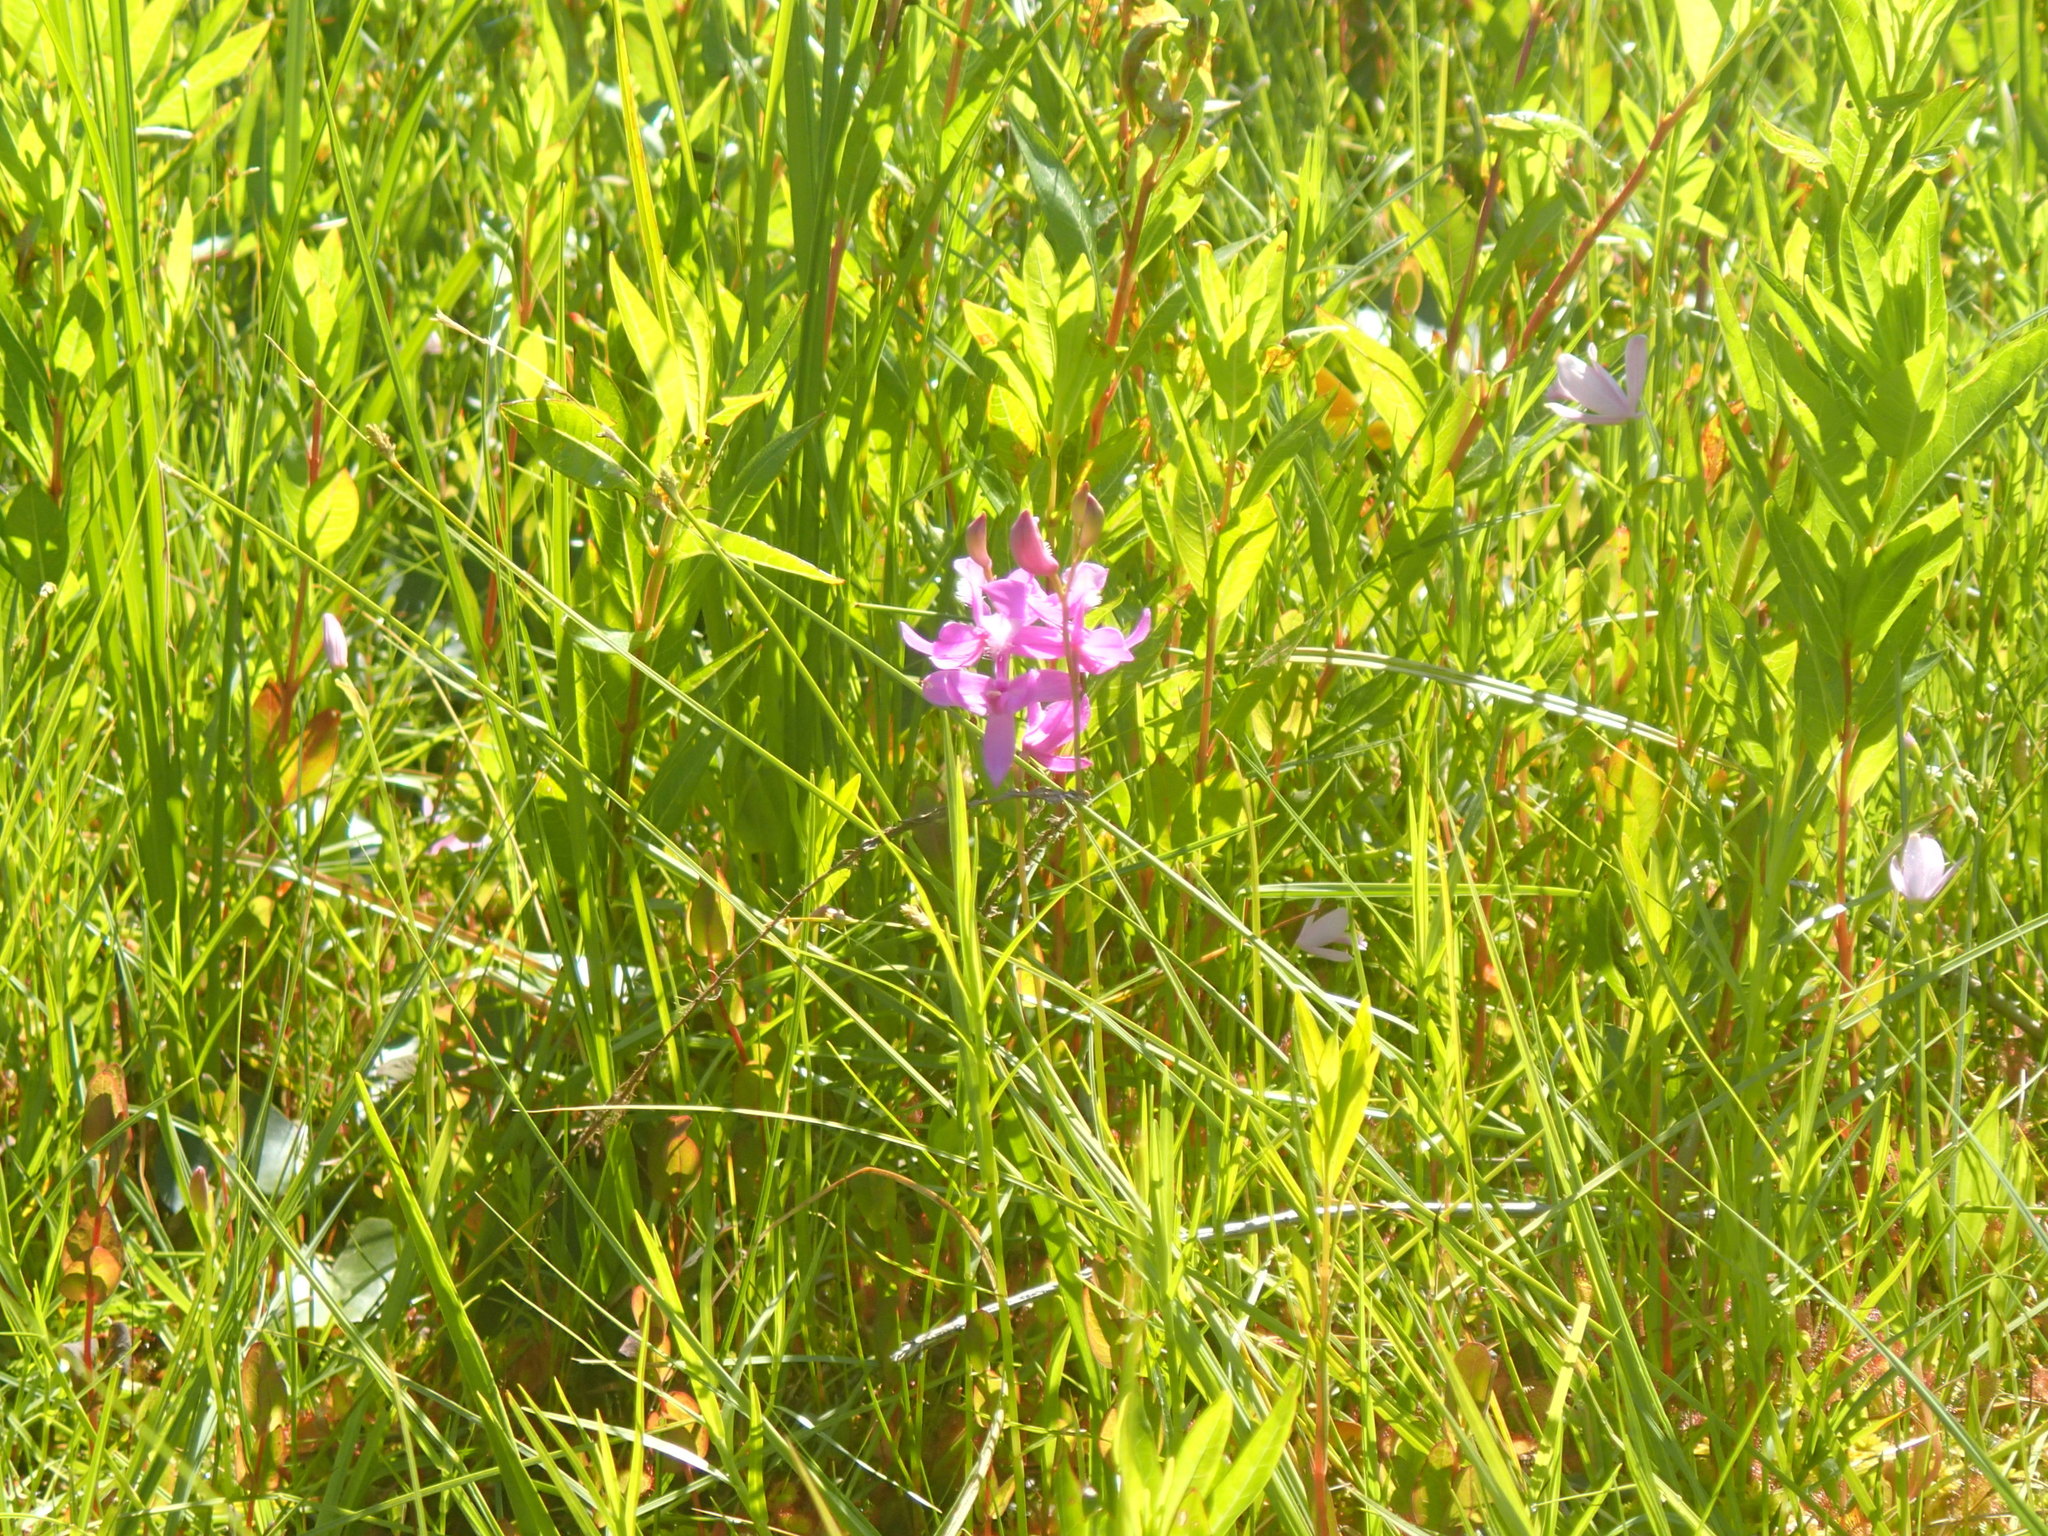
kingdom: Plantae
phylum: Tracheophyta
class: Liliopsida
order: Asparagales
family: Orchidaceae
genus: Calopogon
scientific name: Calopogon tuberosus
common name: Grass-pink
